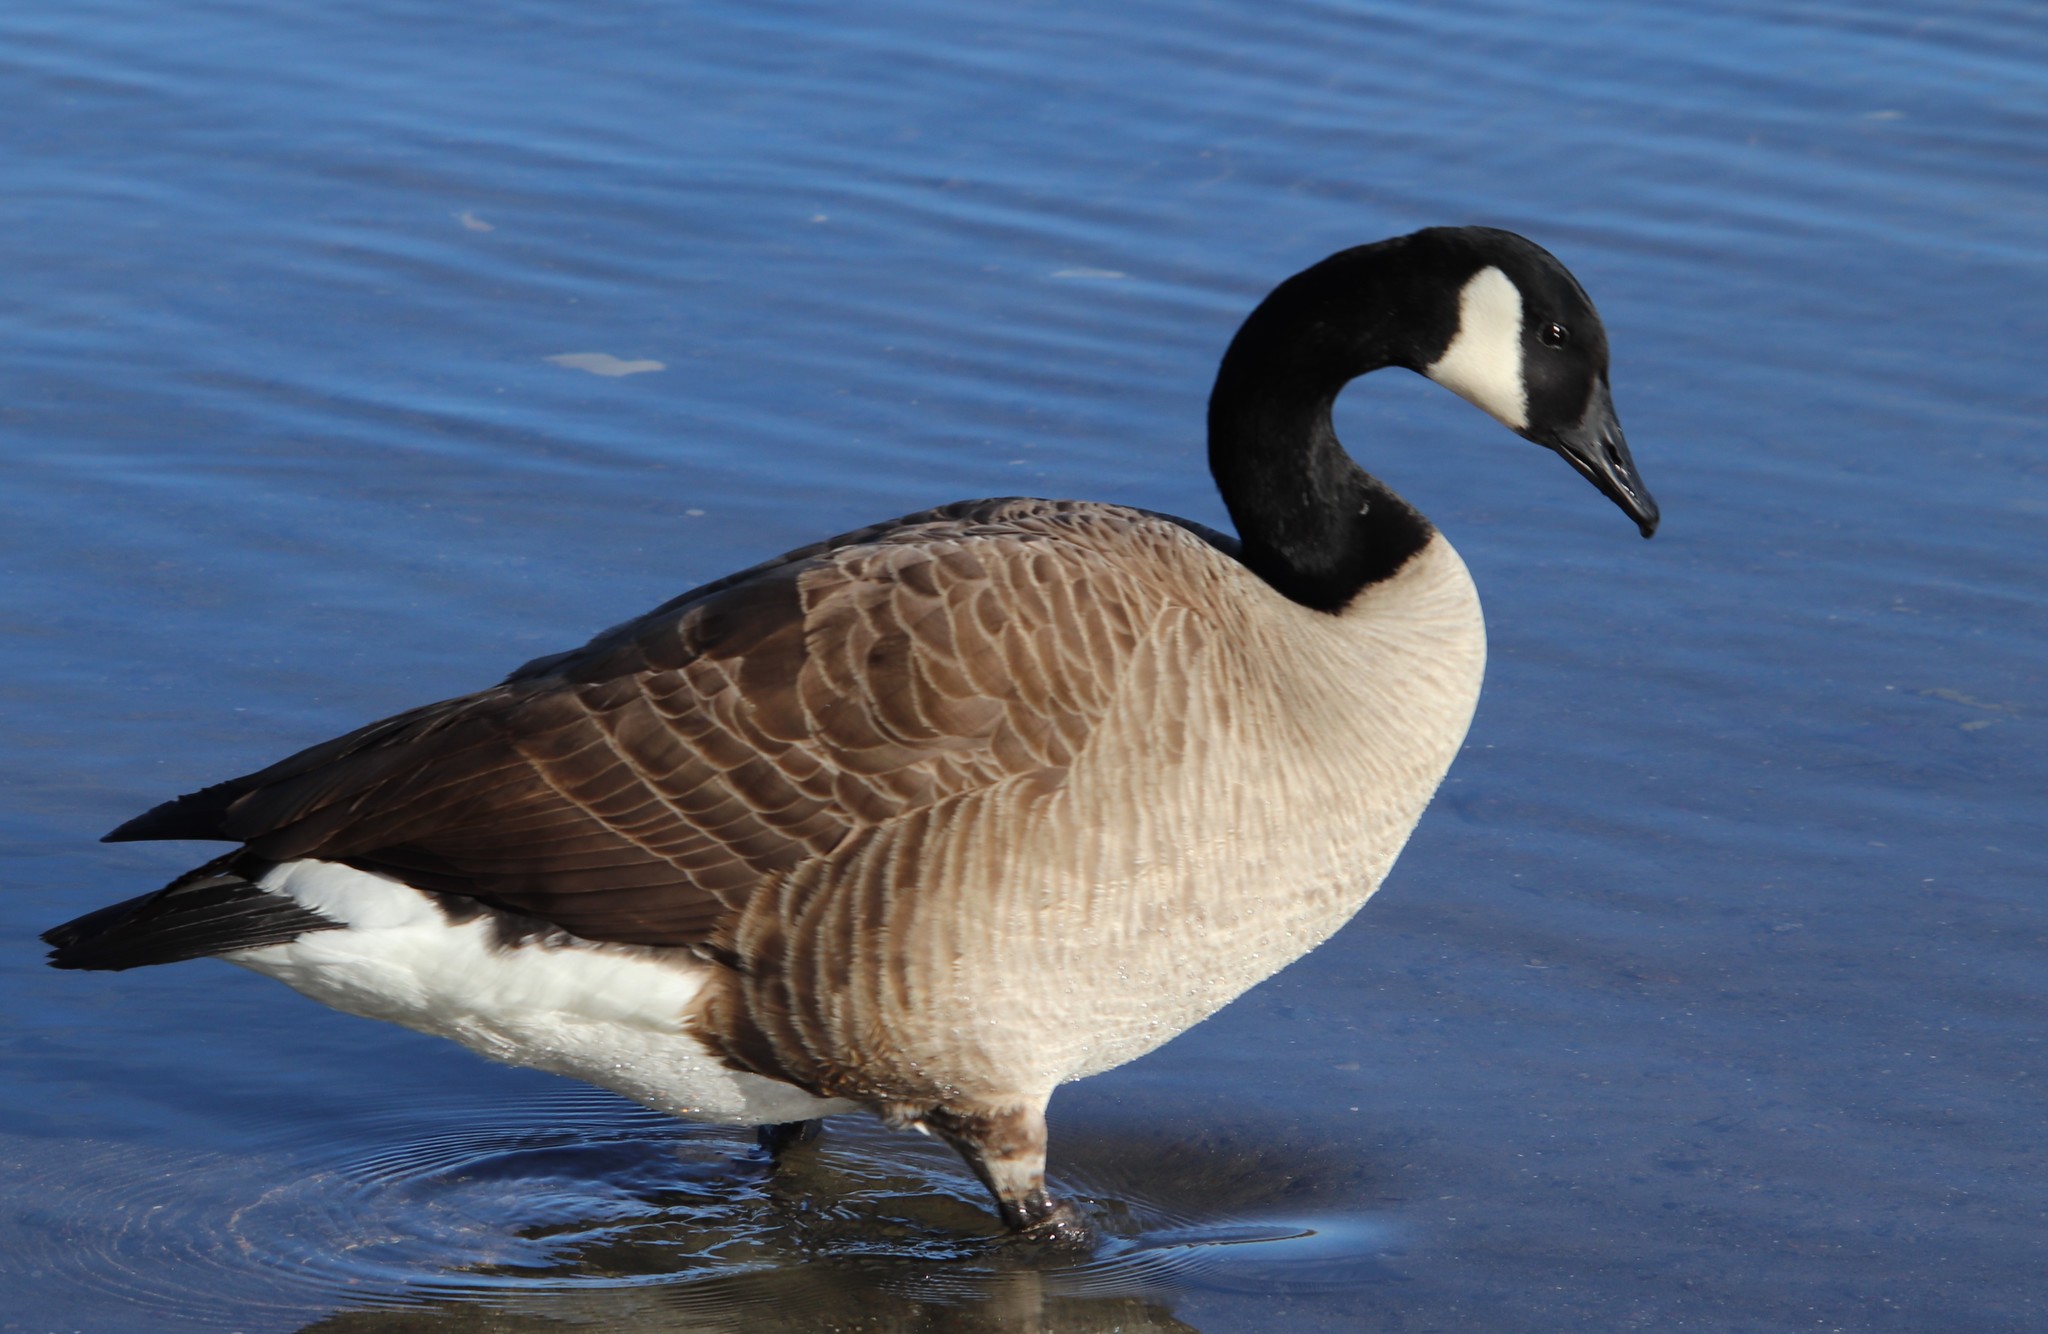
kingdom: Animalia
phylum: Chordata
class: Aves
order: Anseriformes
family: Anatidae
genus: Branta
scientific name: Branta canadensis
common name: Canada goose
